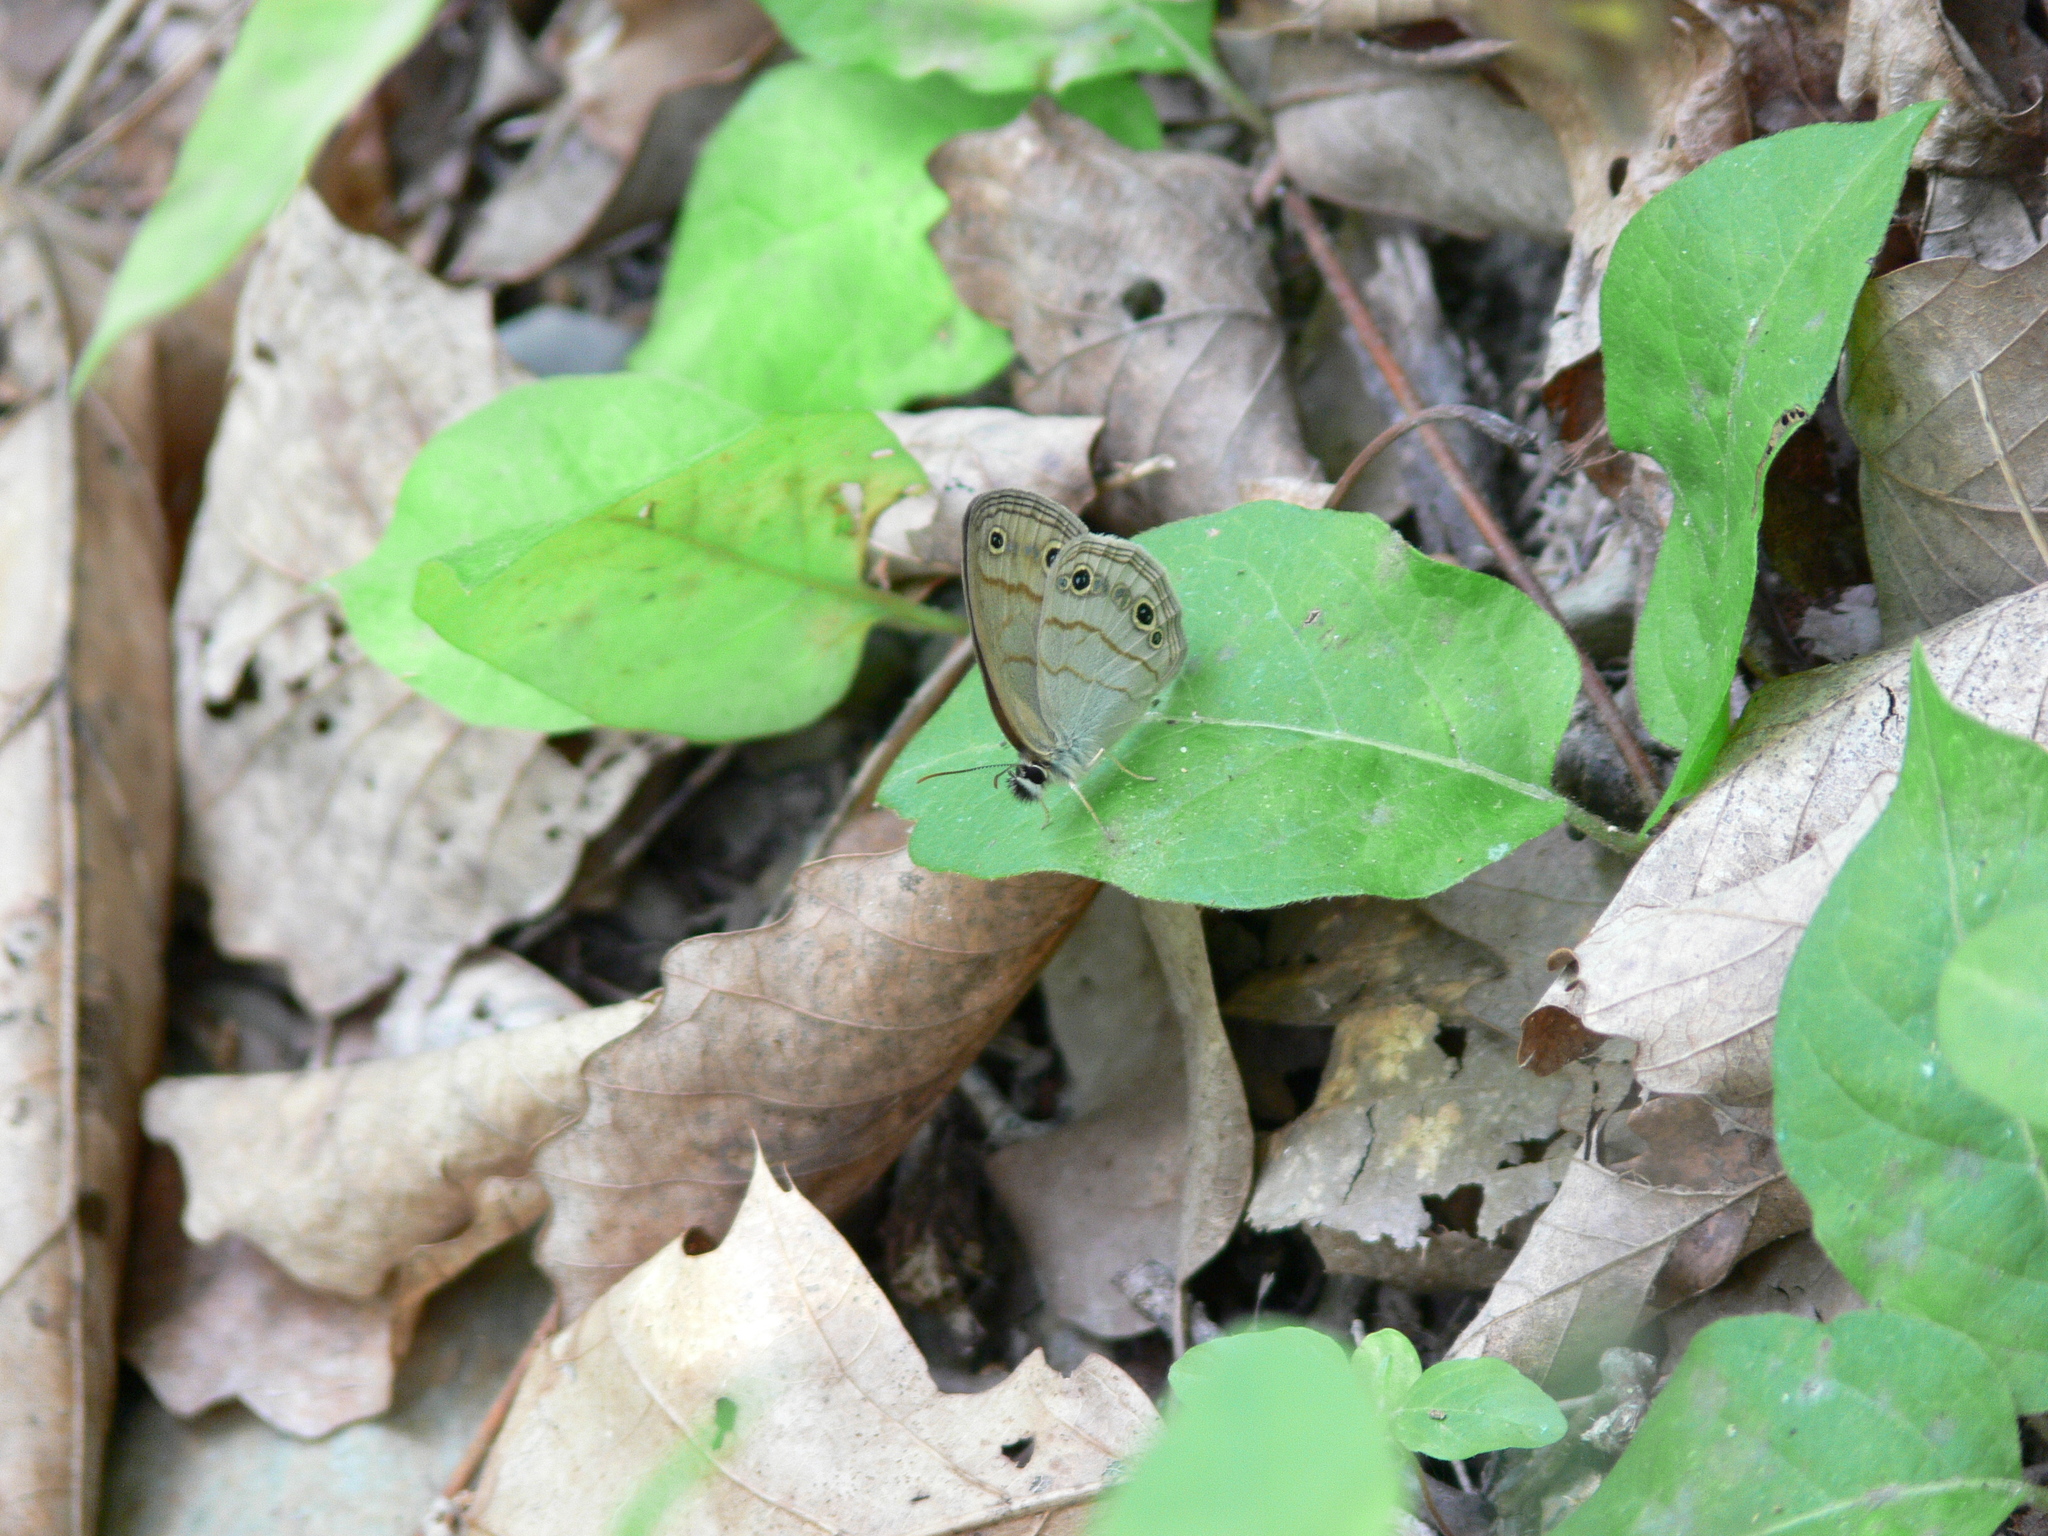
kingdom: Animalia
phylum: Arthropoda
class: Insecta
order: Lepidoptera
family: Nymphalidae
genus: Euptychia
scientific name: Euptychia cymela
